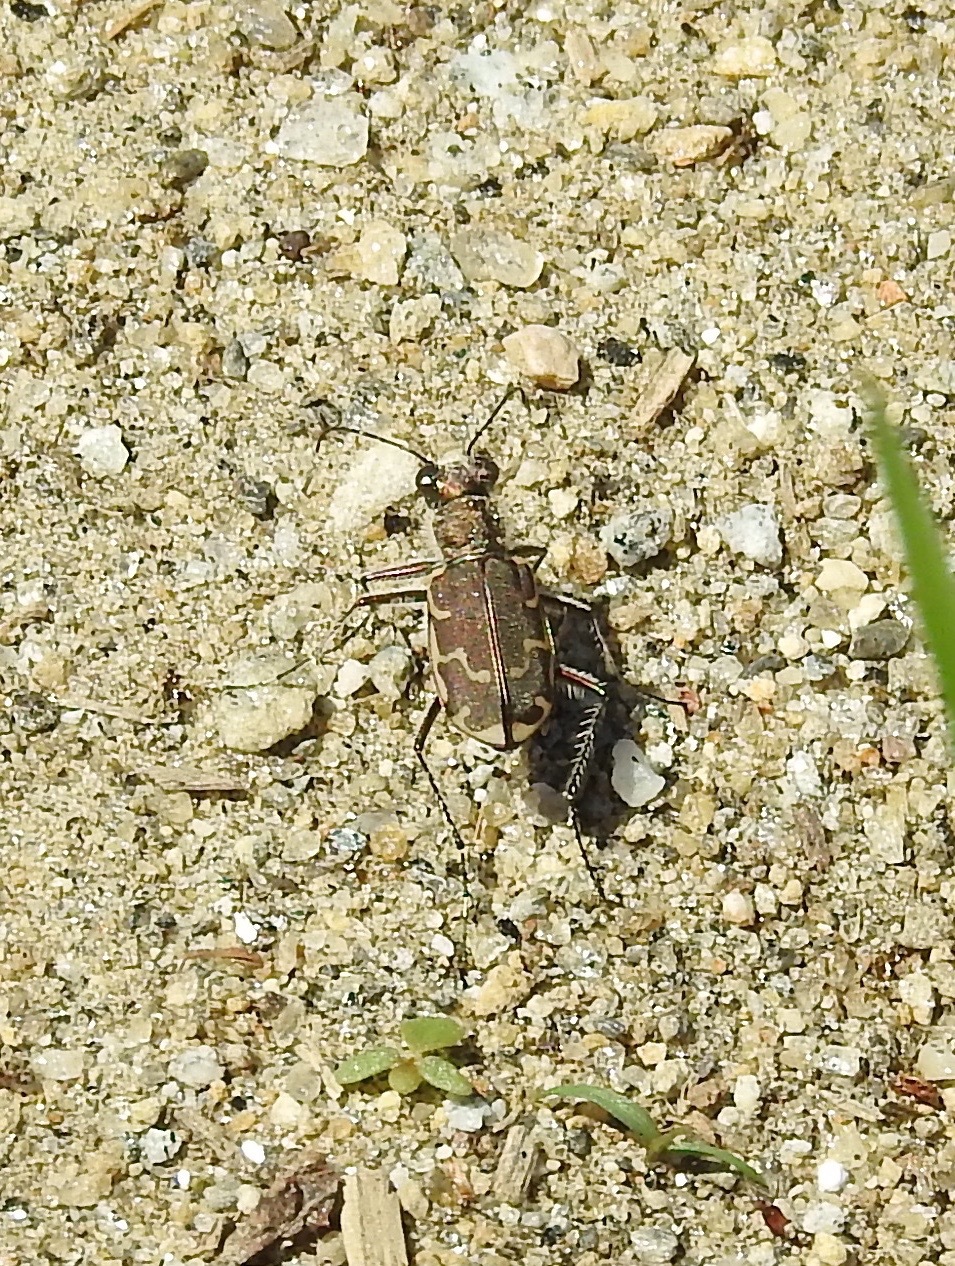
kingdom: Animalia
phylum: Arthropoda
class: Insecta
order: Coleoptera
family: Carabidae
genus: Cicindela
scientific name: Cicindela repanda
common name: Bronzed tiger beetle
